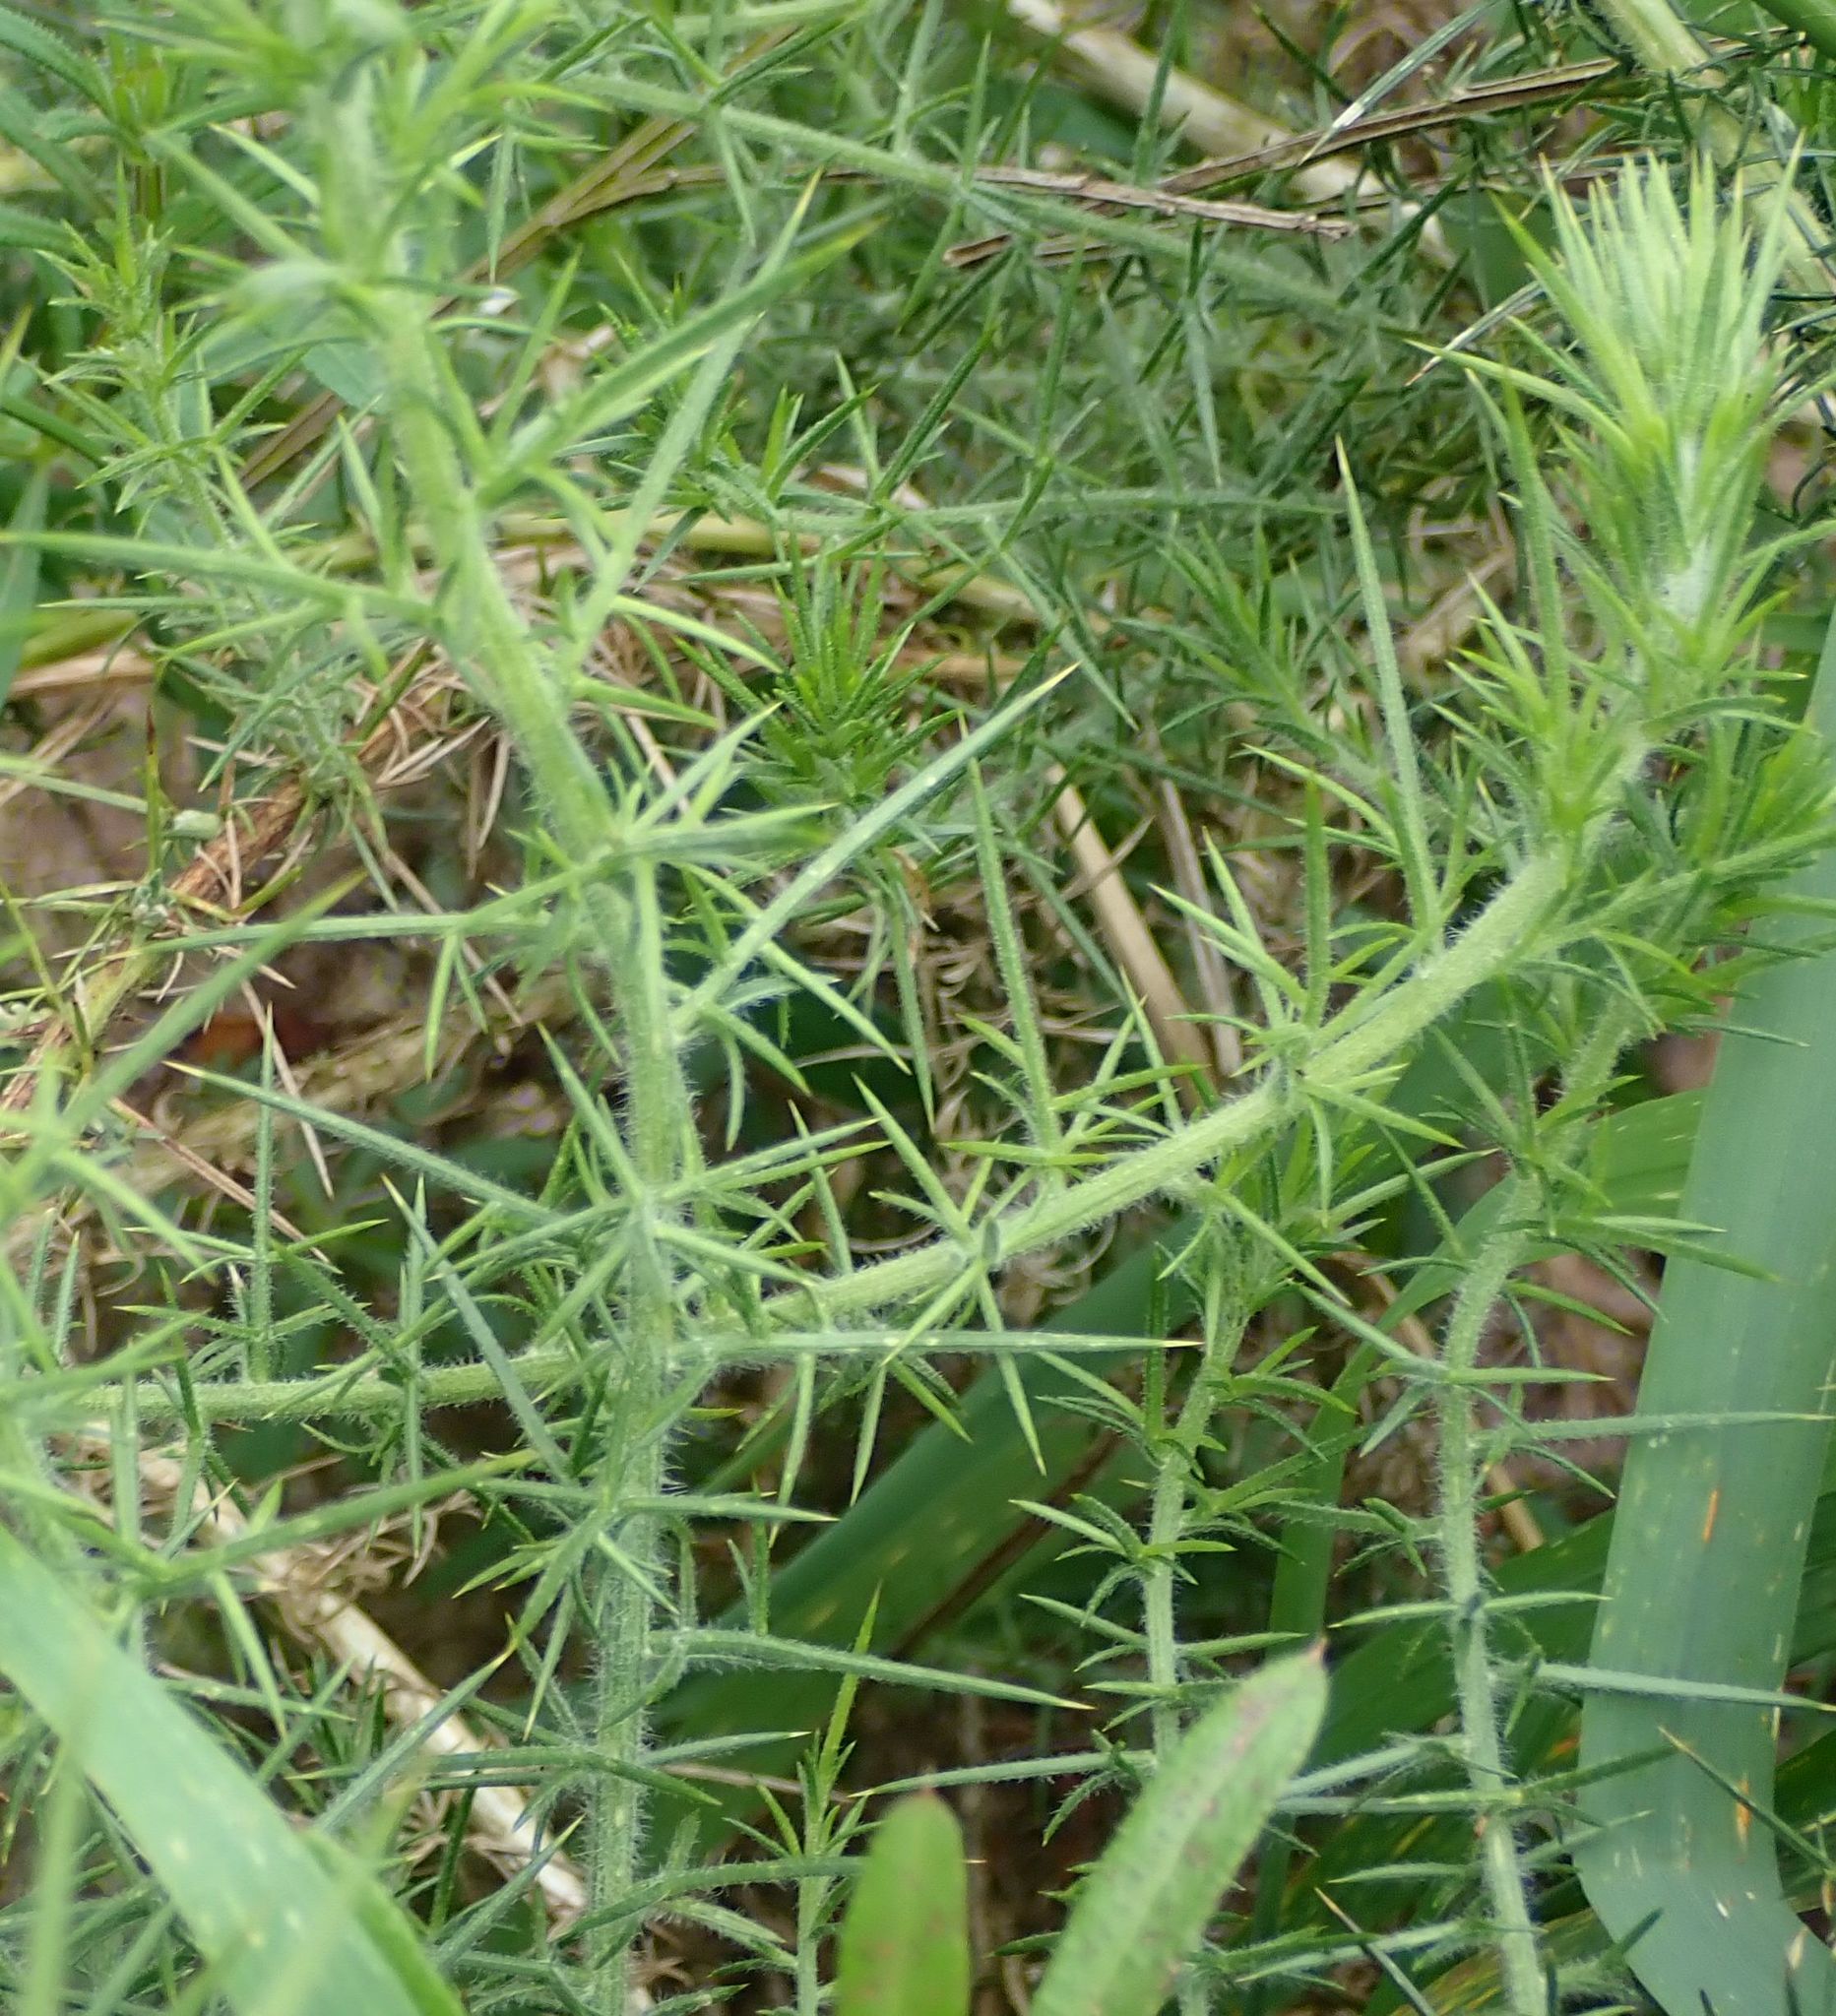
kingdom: Plantae
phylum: Tracheophyta
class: Magnoliopsida
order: Fabales
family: Fabaceae
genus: Ulex
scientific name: Ulex europaeus
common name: Common gorse
